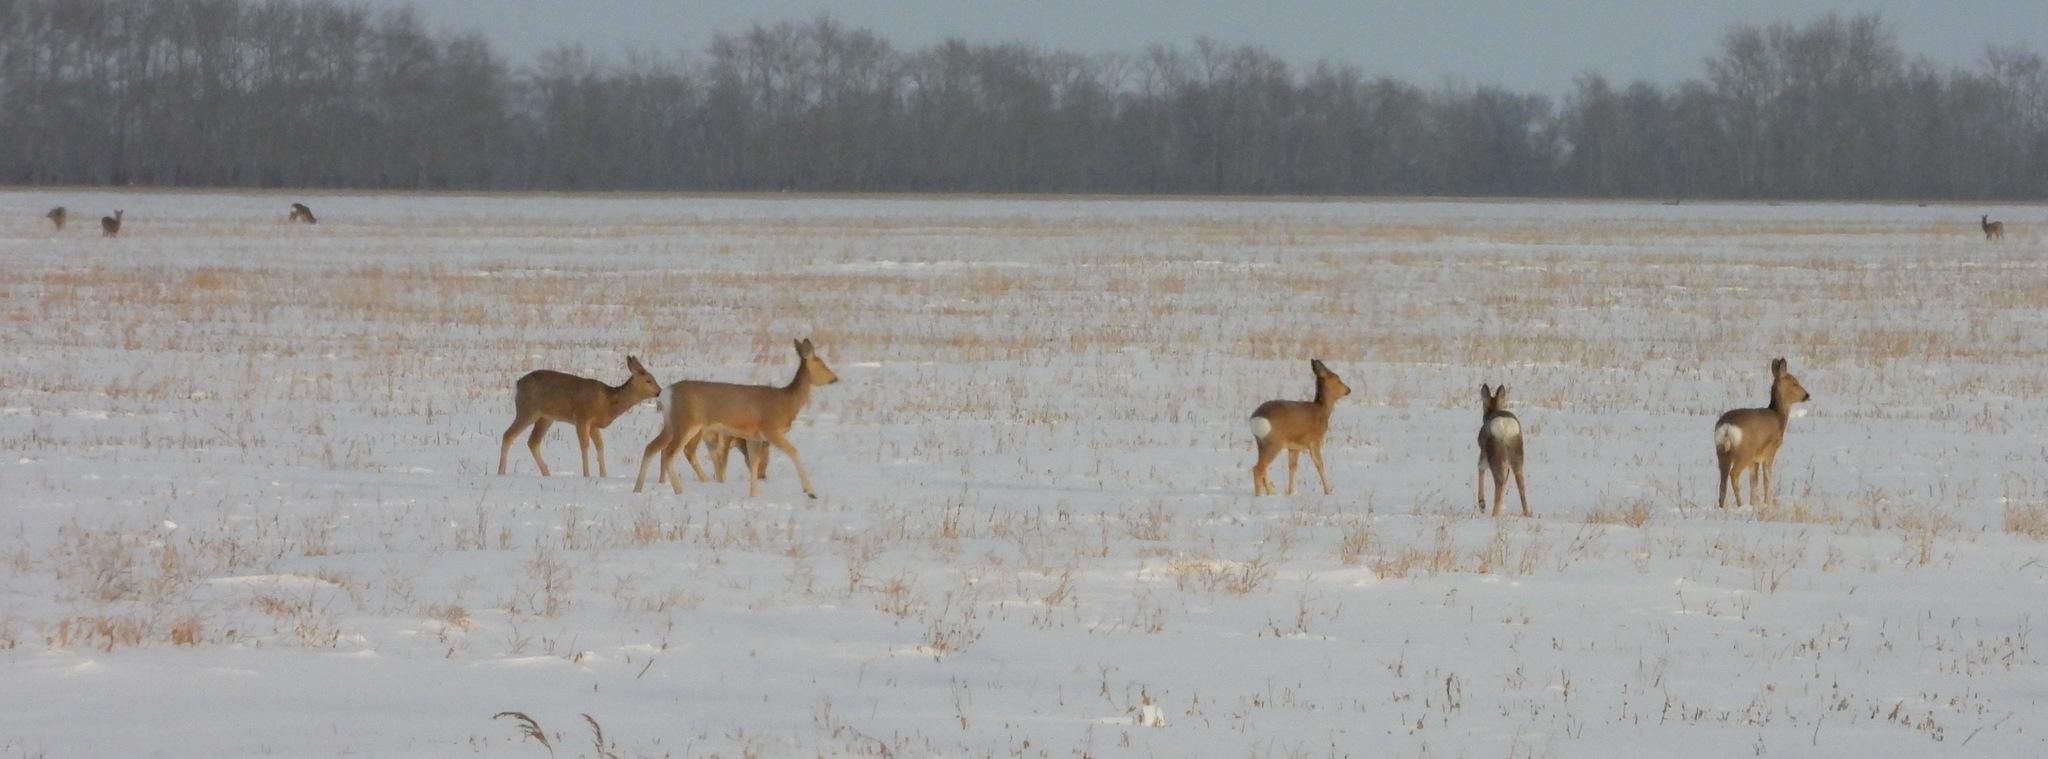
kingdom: Animalia
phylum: Chordata
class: Mammalia
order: Artiodactyla
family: Cervidae
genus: Capreolus
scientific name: Capreolus pygargus
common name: Siberian roe
